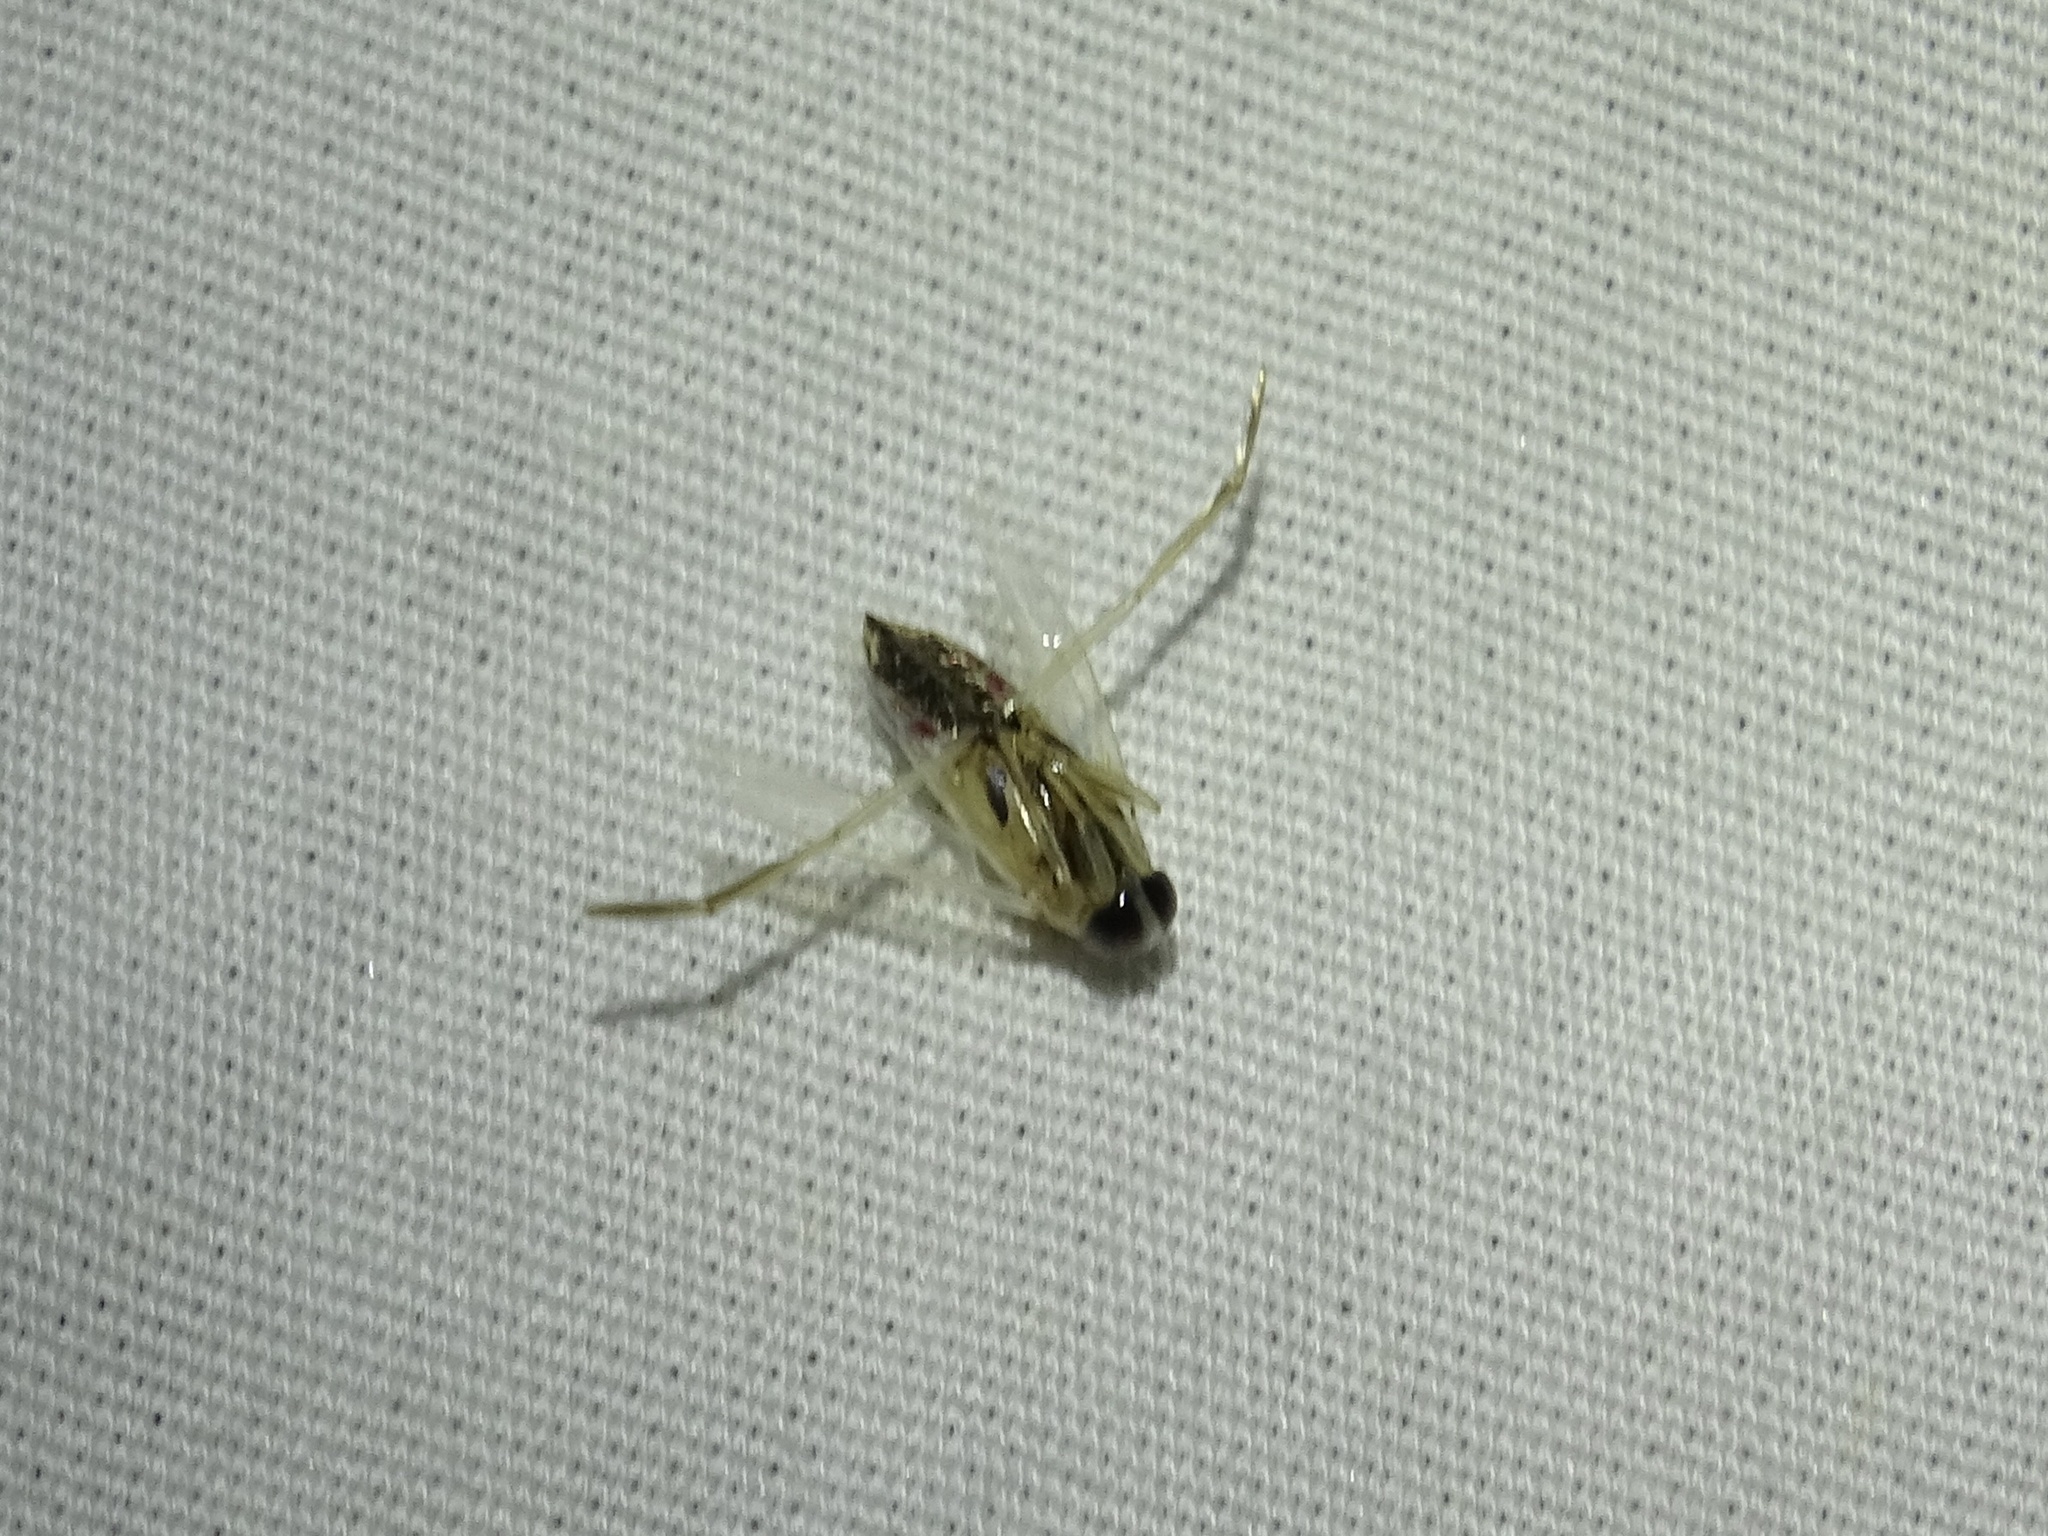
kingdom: Animalia
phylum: Arthropoda
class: Insecta
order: Hemiptera
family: Notonectidae
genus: Buenoa
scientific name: Buenoa
